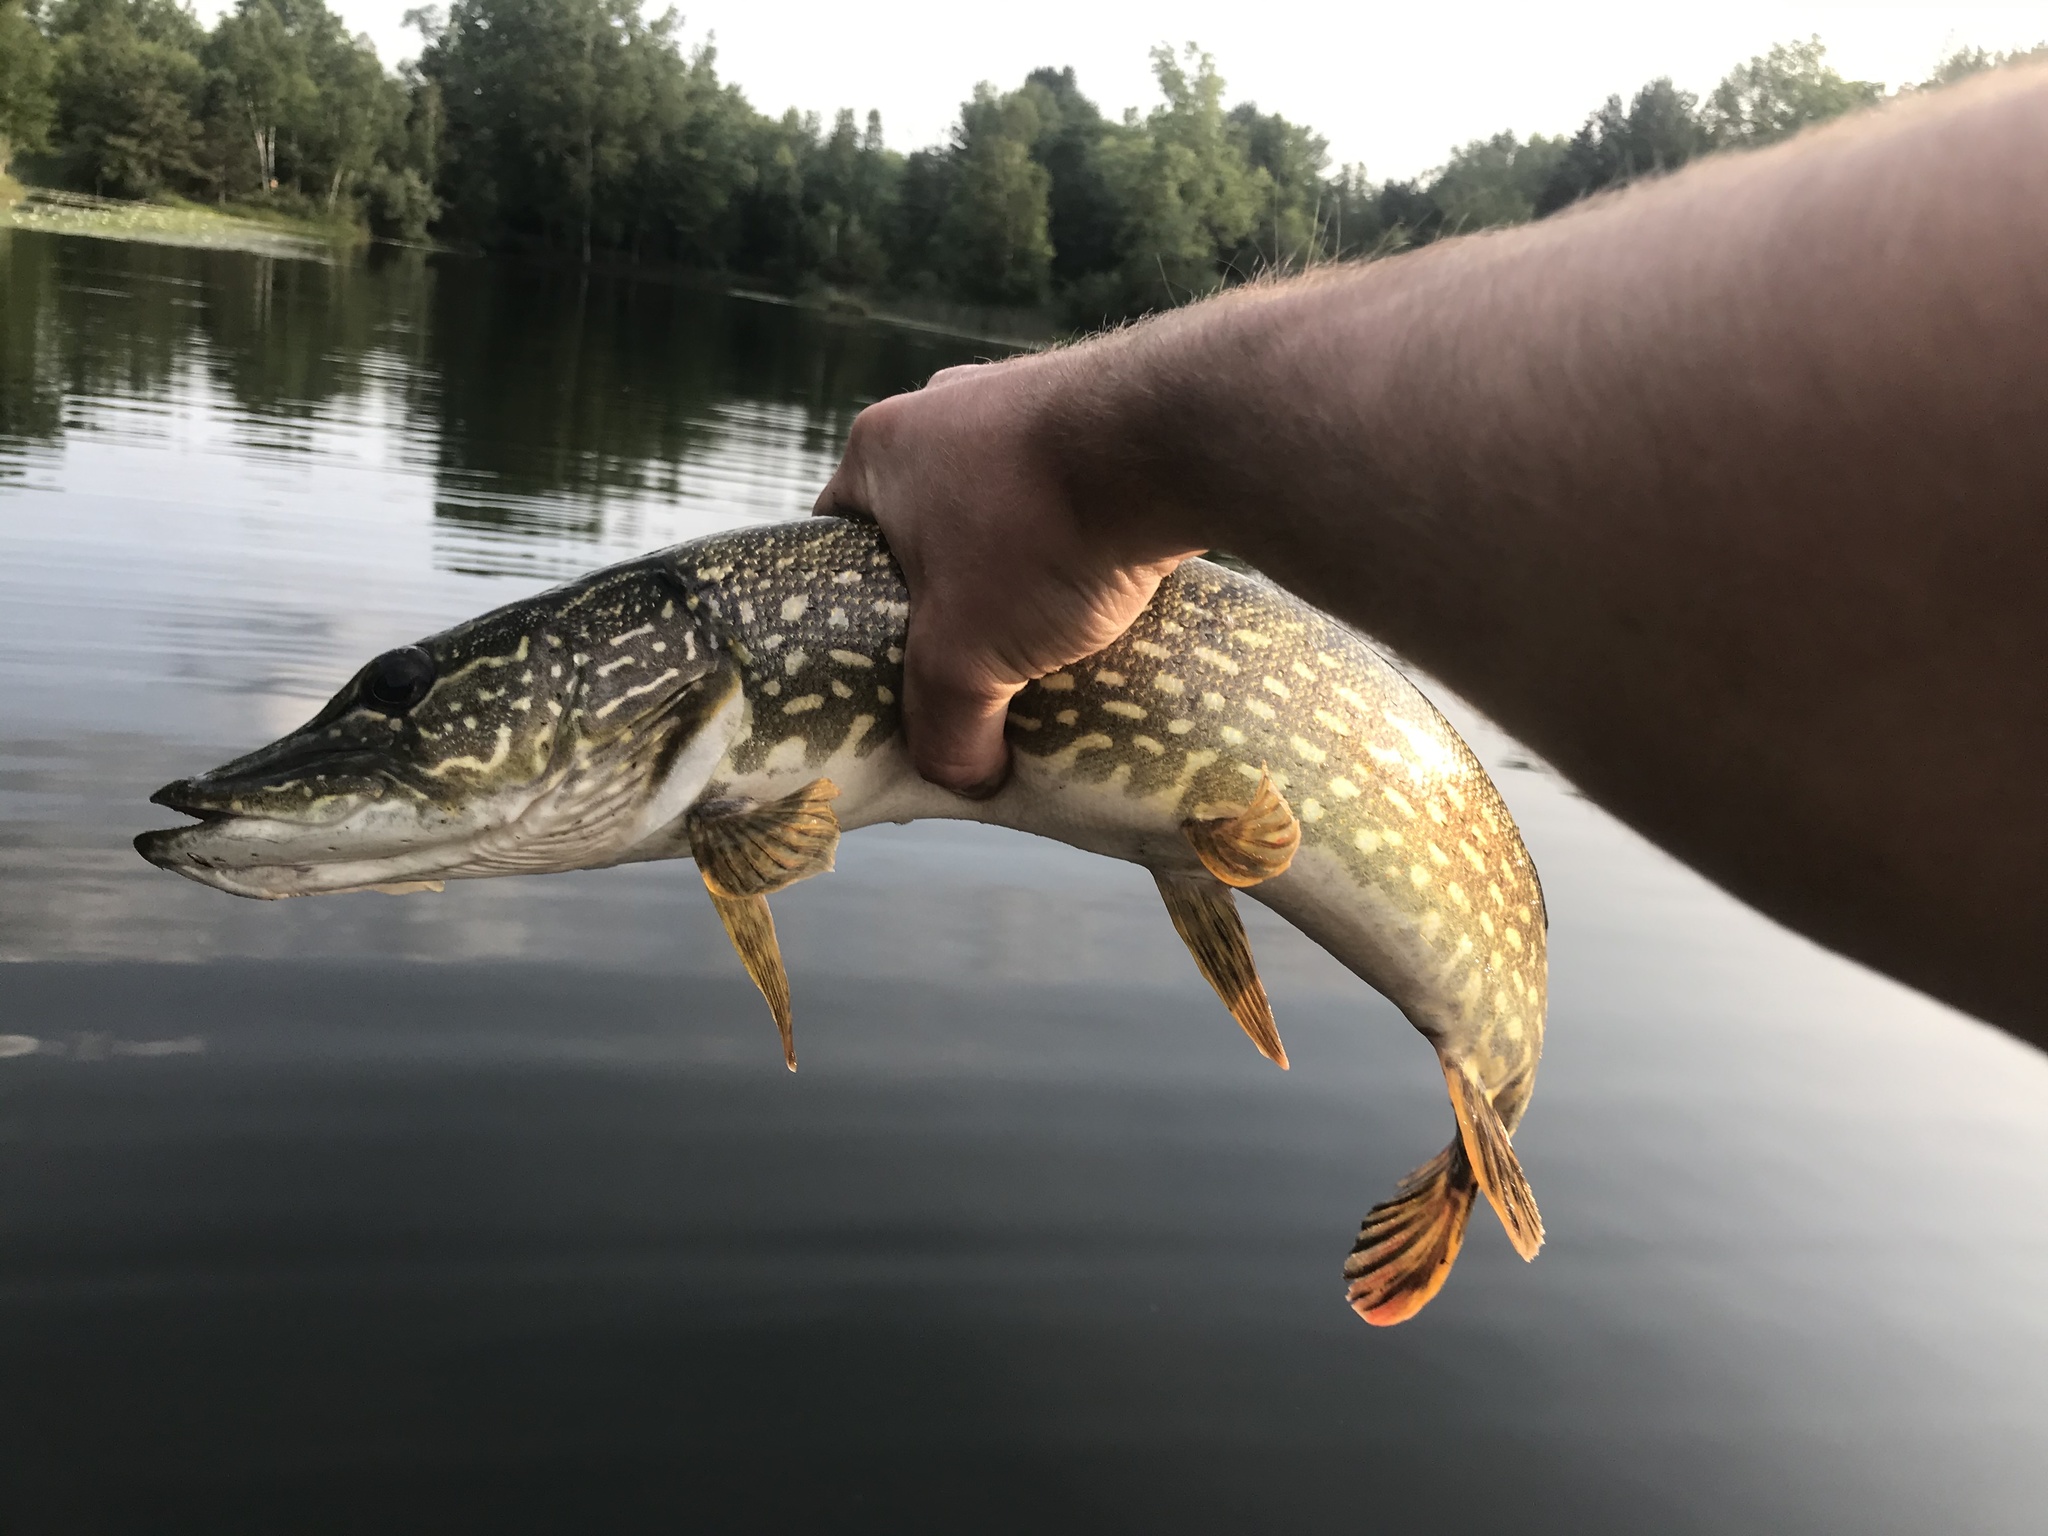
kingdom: Animalia
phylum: Chordata
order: Esociformes
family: Esocidae
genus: Esox
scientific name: Esox lucius
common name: Northern pike
